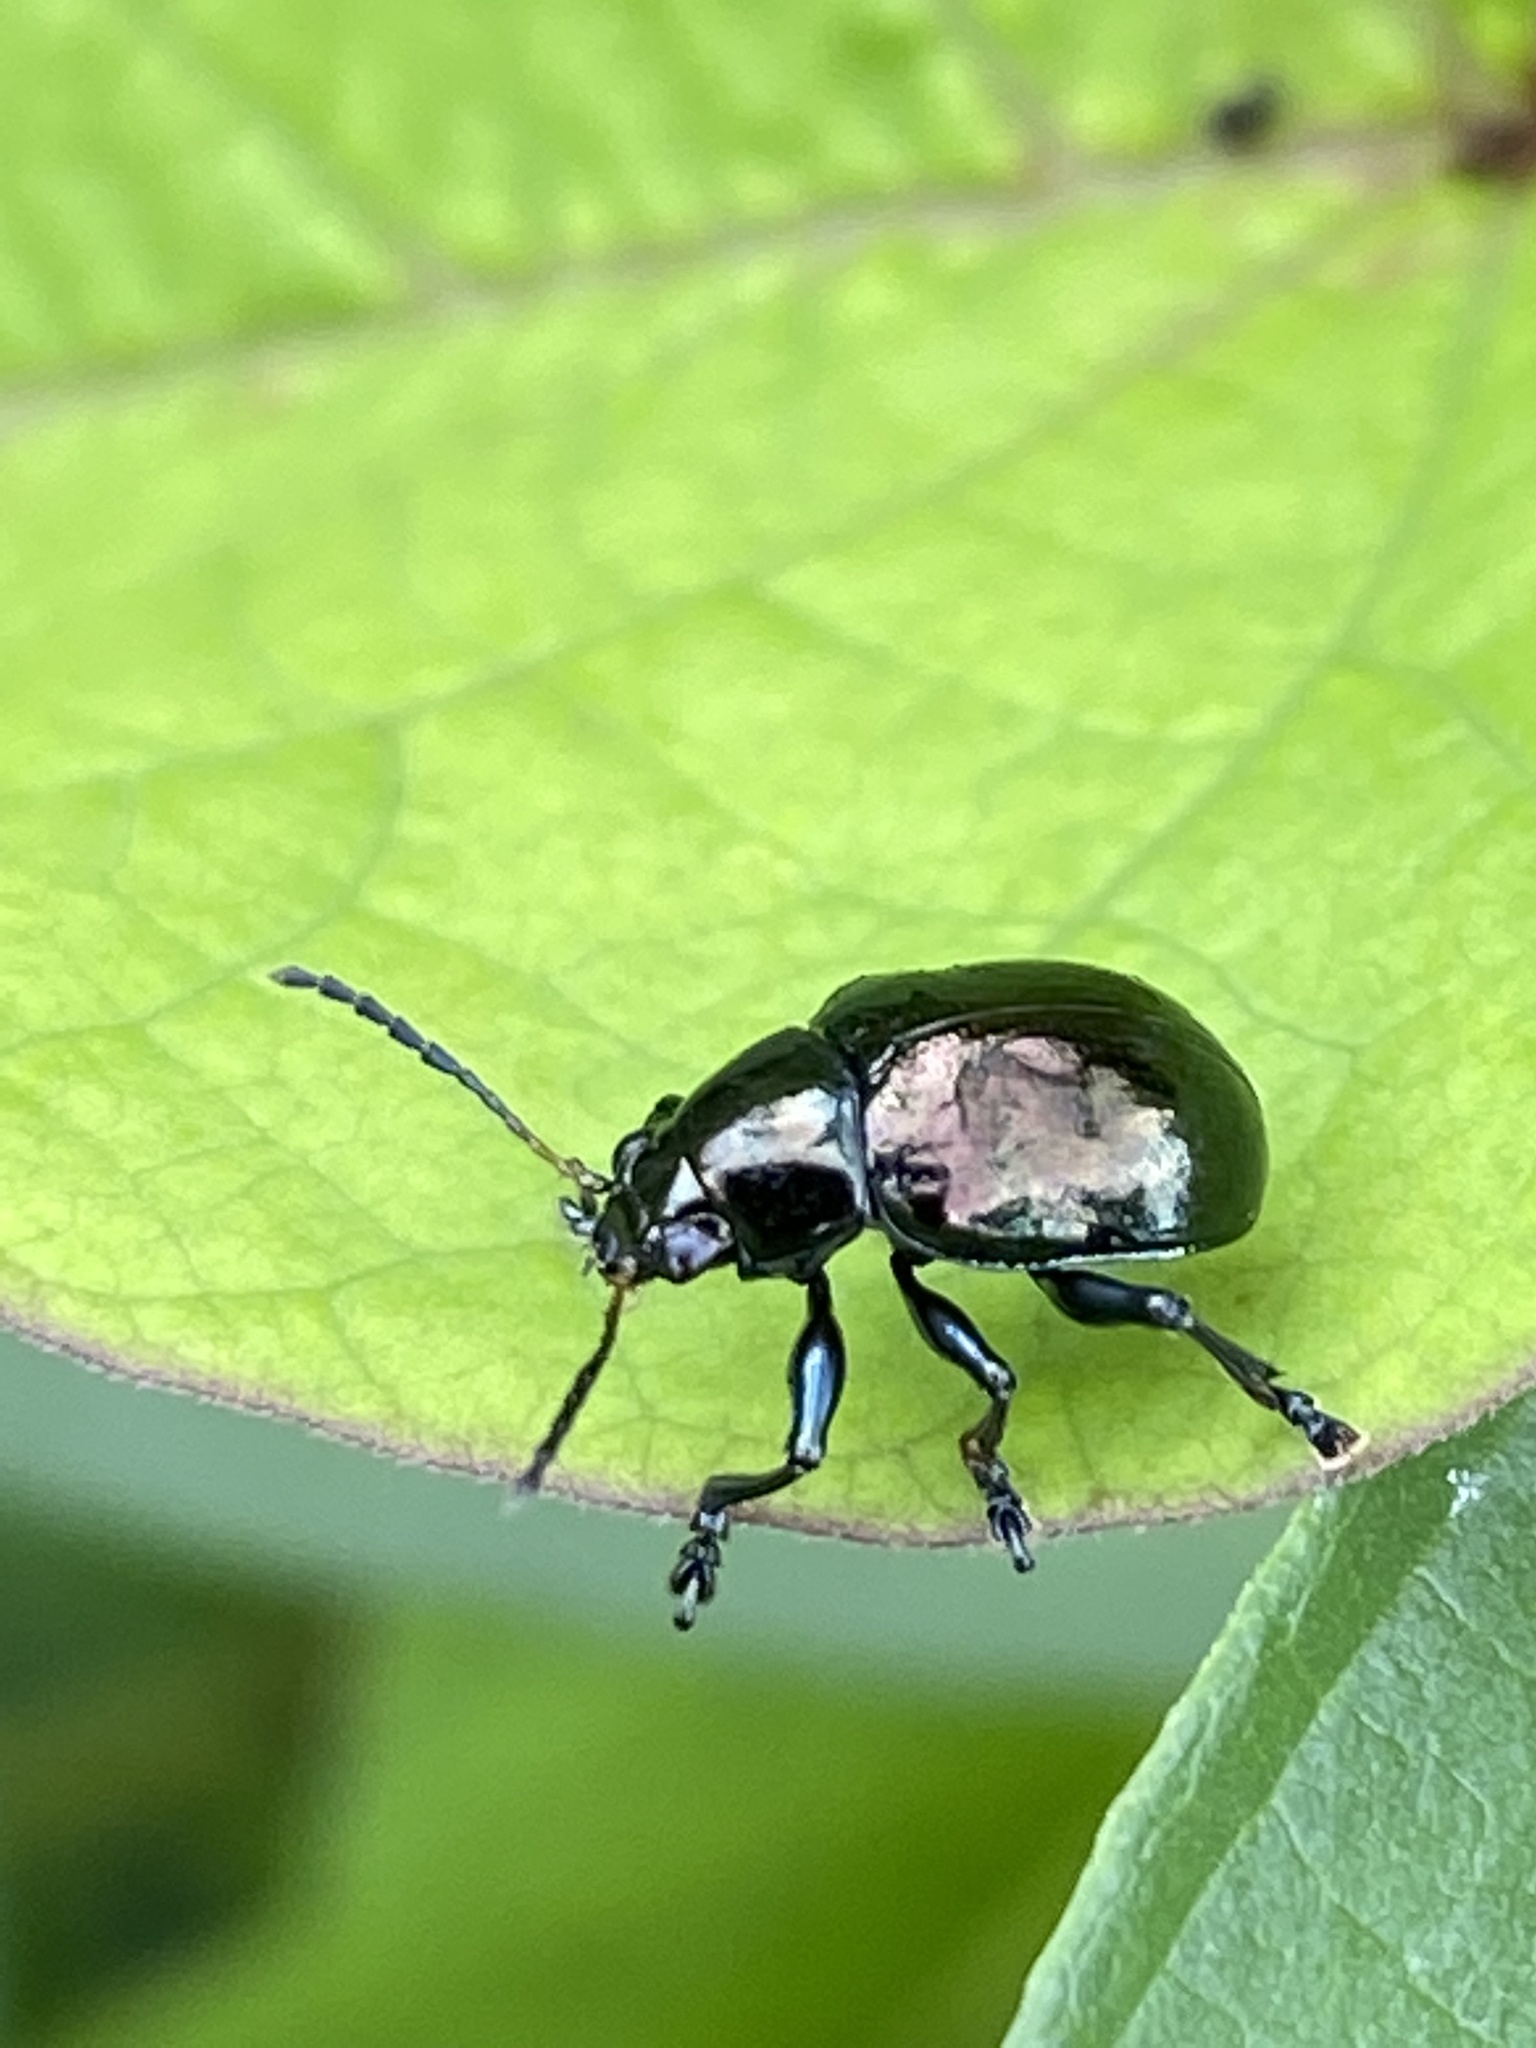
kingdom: Animalia
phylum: Arthropoda
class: Insecta
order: Coleoptera
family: Chrysomelidae
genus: Typophorus
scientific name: Typophorus nigritus
